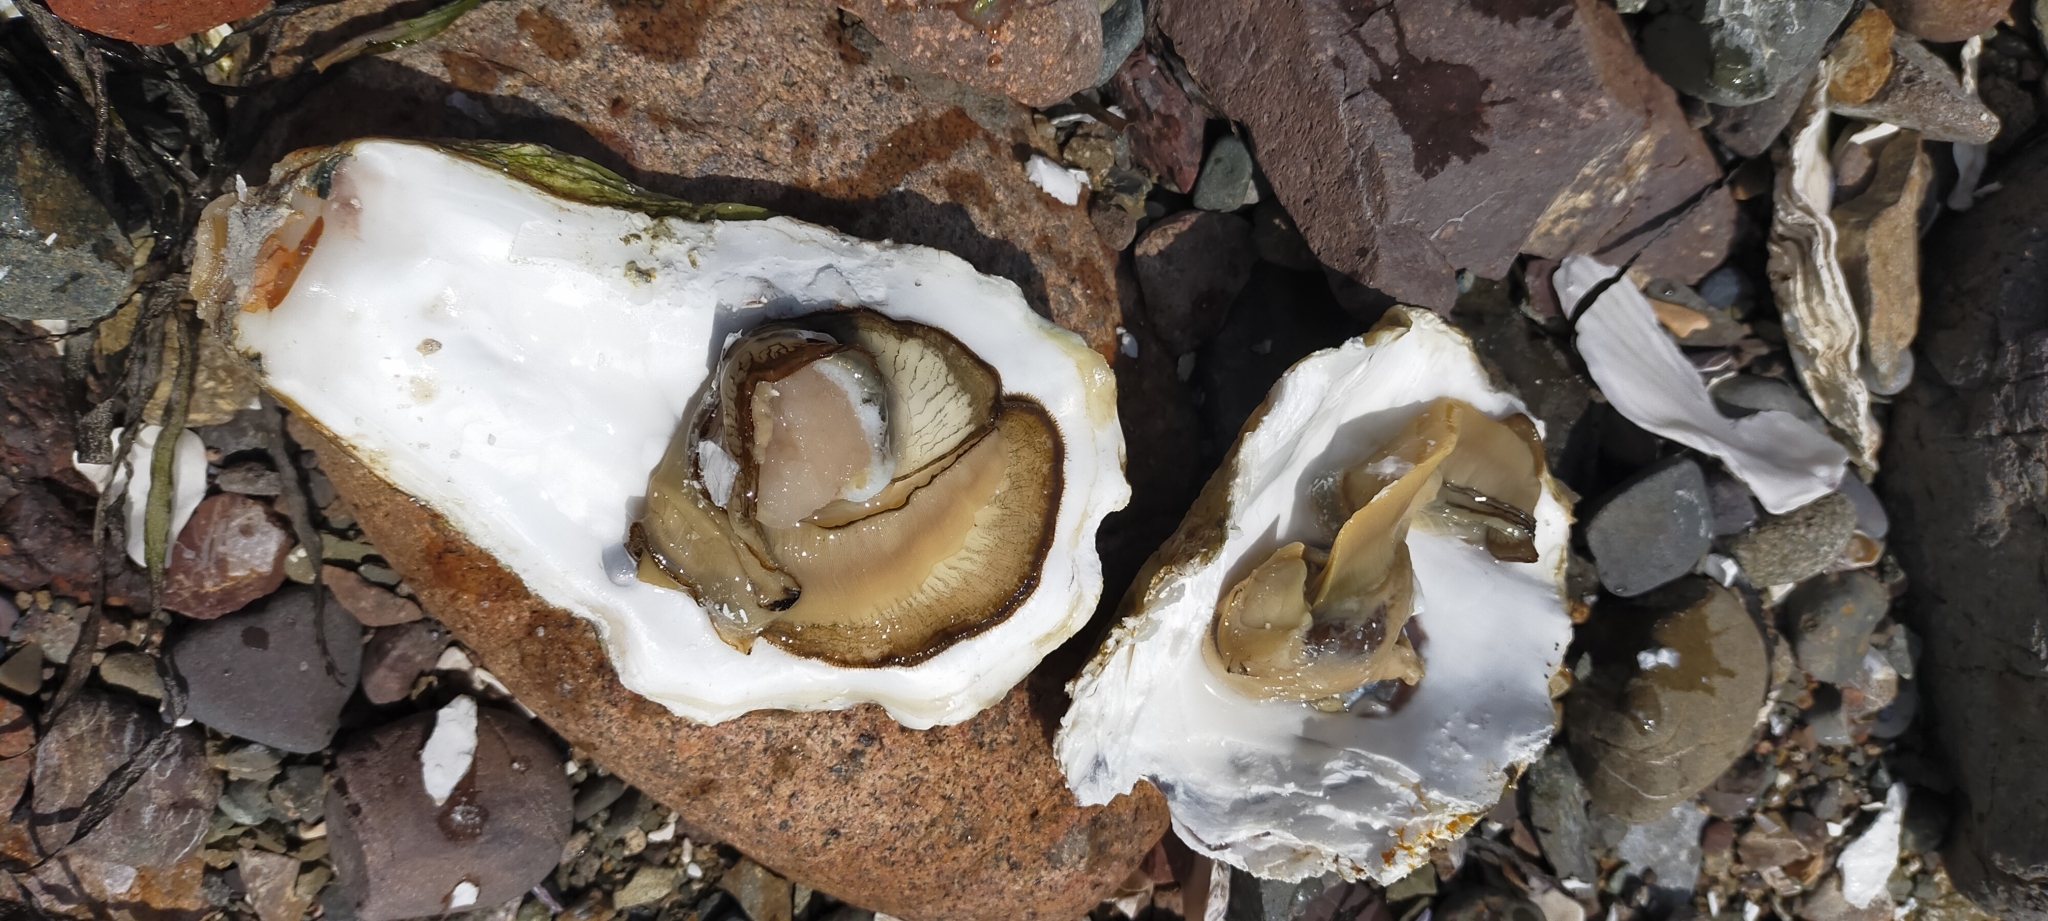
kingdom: Animalia
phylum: Mollusca
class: Bivalvia
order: Ostreida
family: Ostreidae
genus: Magallana
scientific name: Magallana gigas
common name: Pacific oyster
